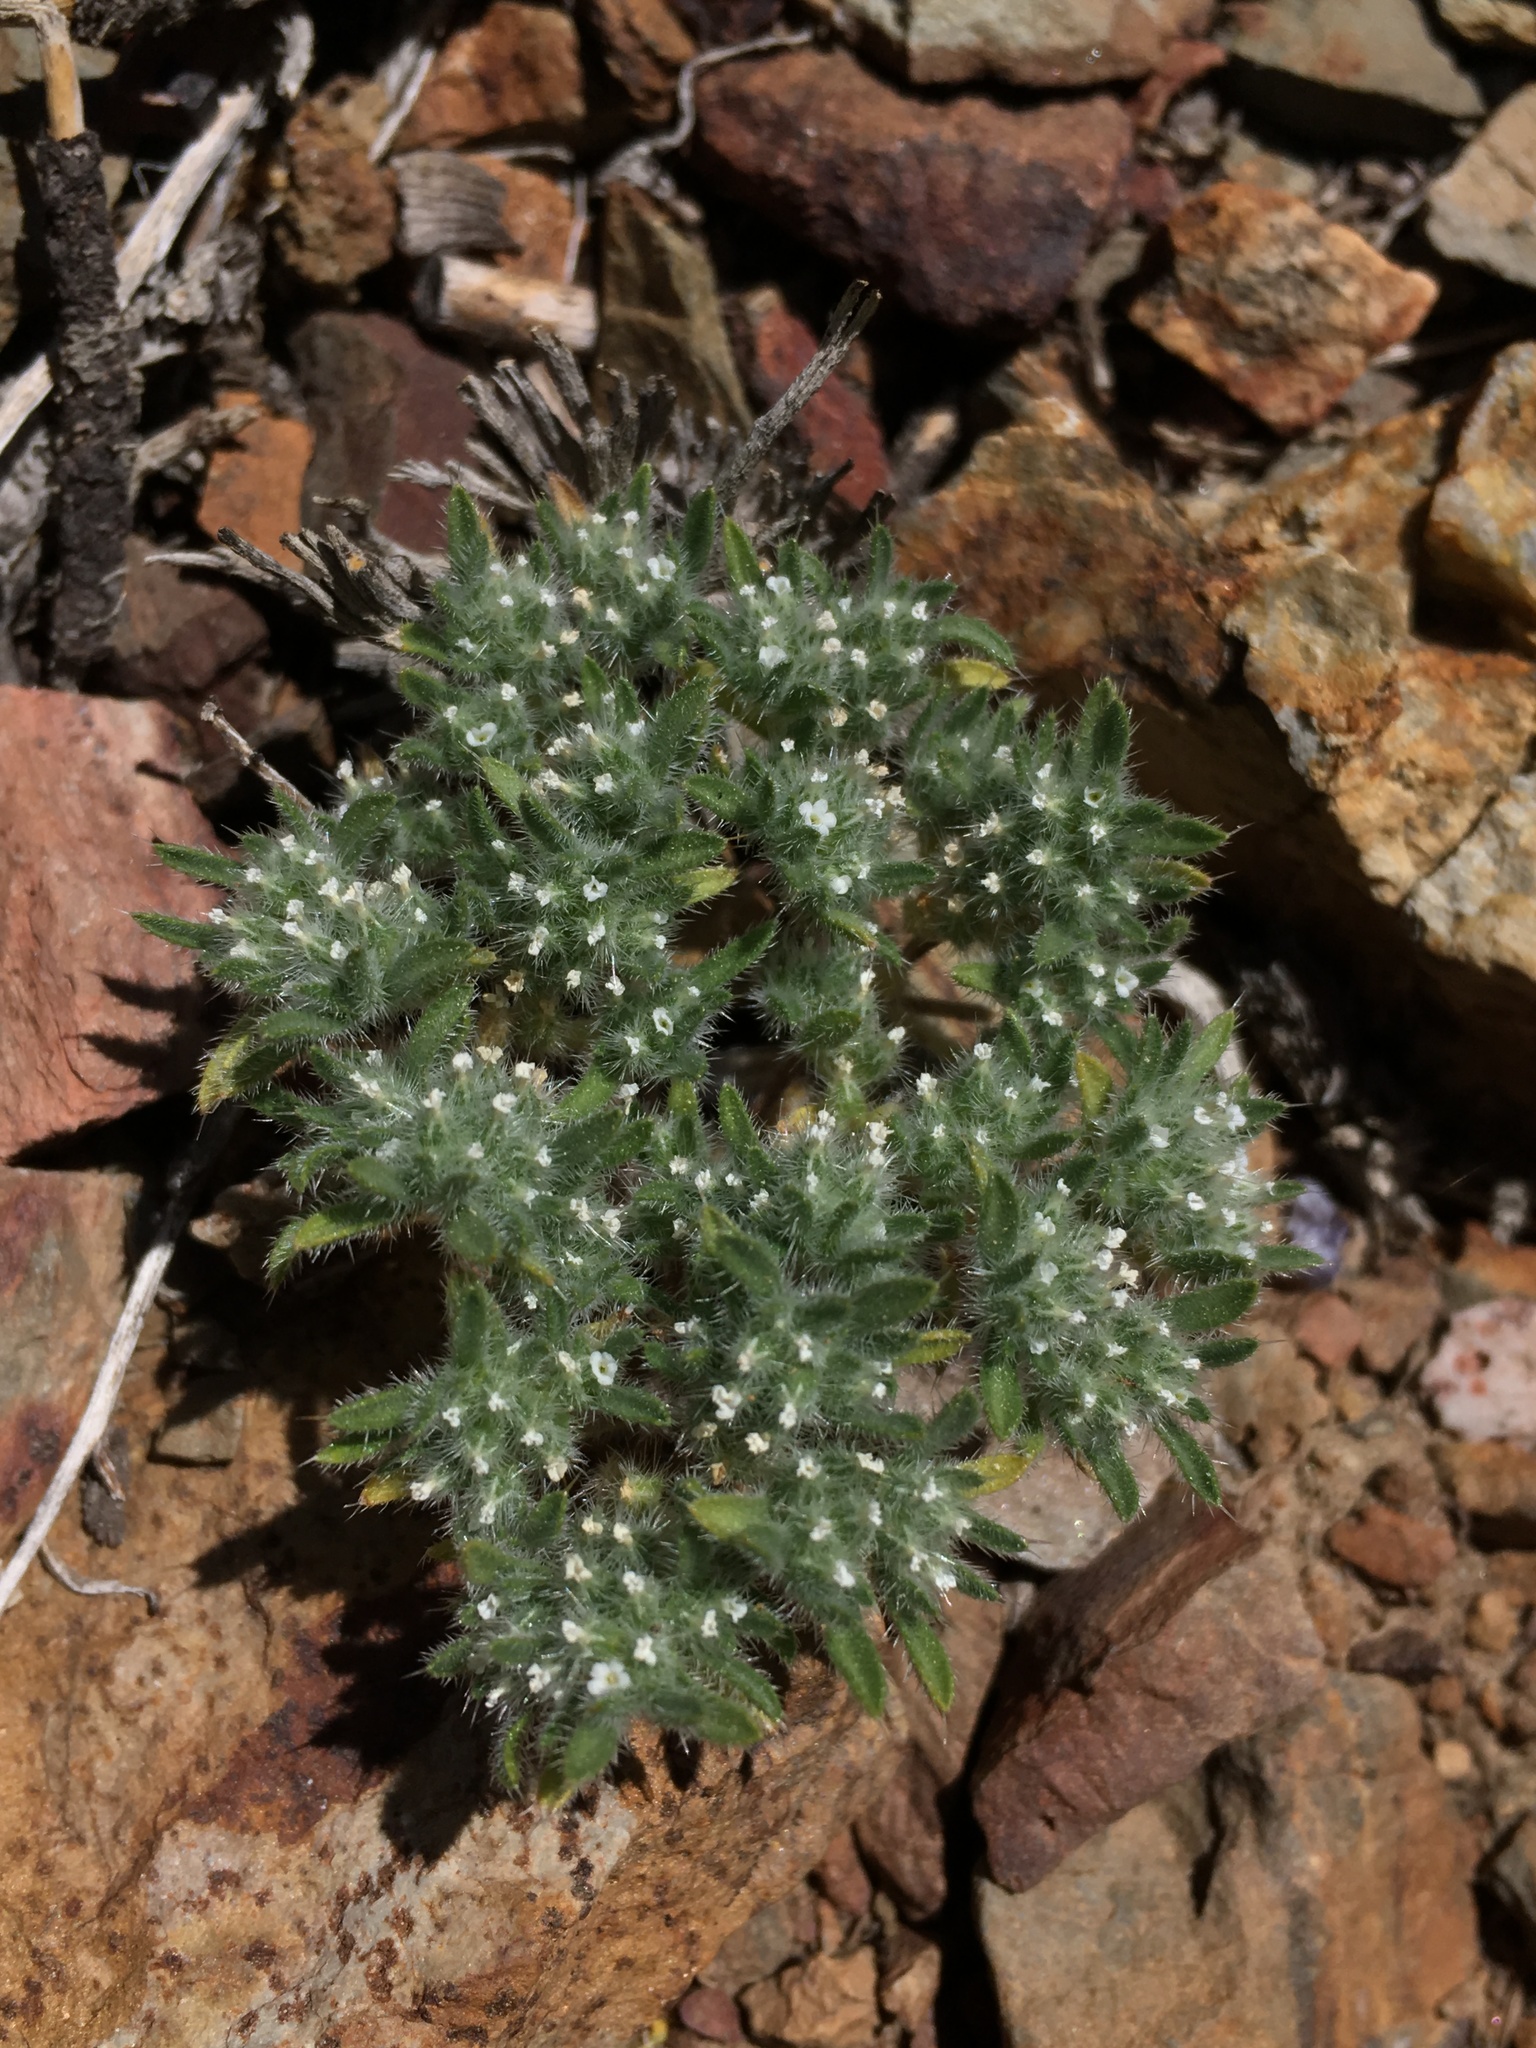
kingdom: Plantae
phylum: Tracheophyta
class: Magnoliopsida
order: Boraginales
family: Boraginaceae
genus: Greeneocharis
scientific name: Greeneocharis circumscissa
